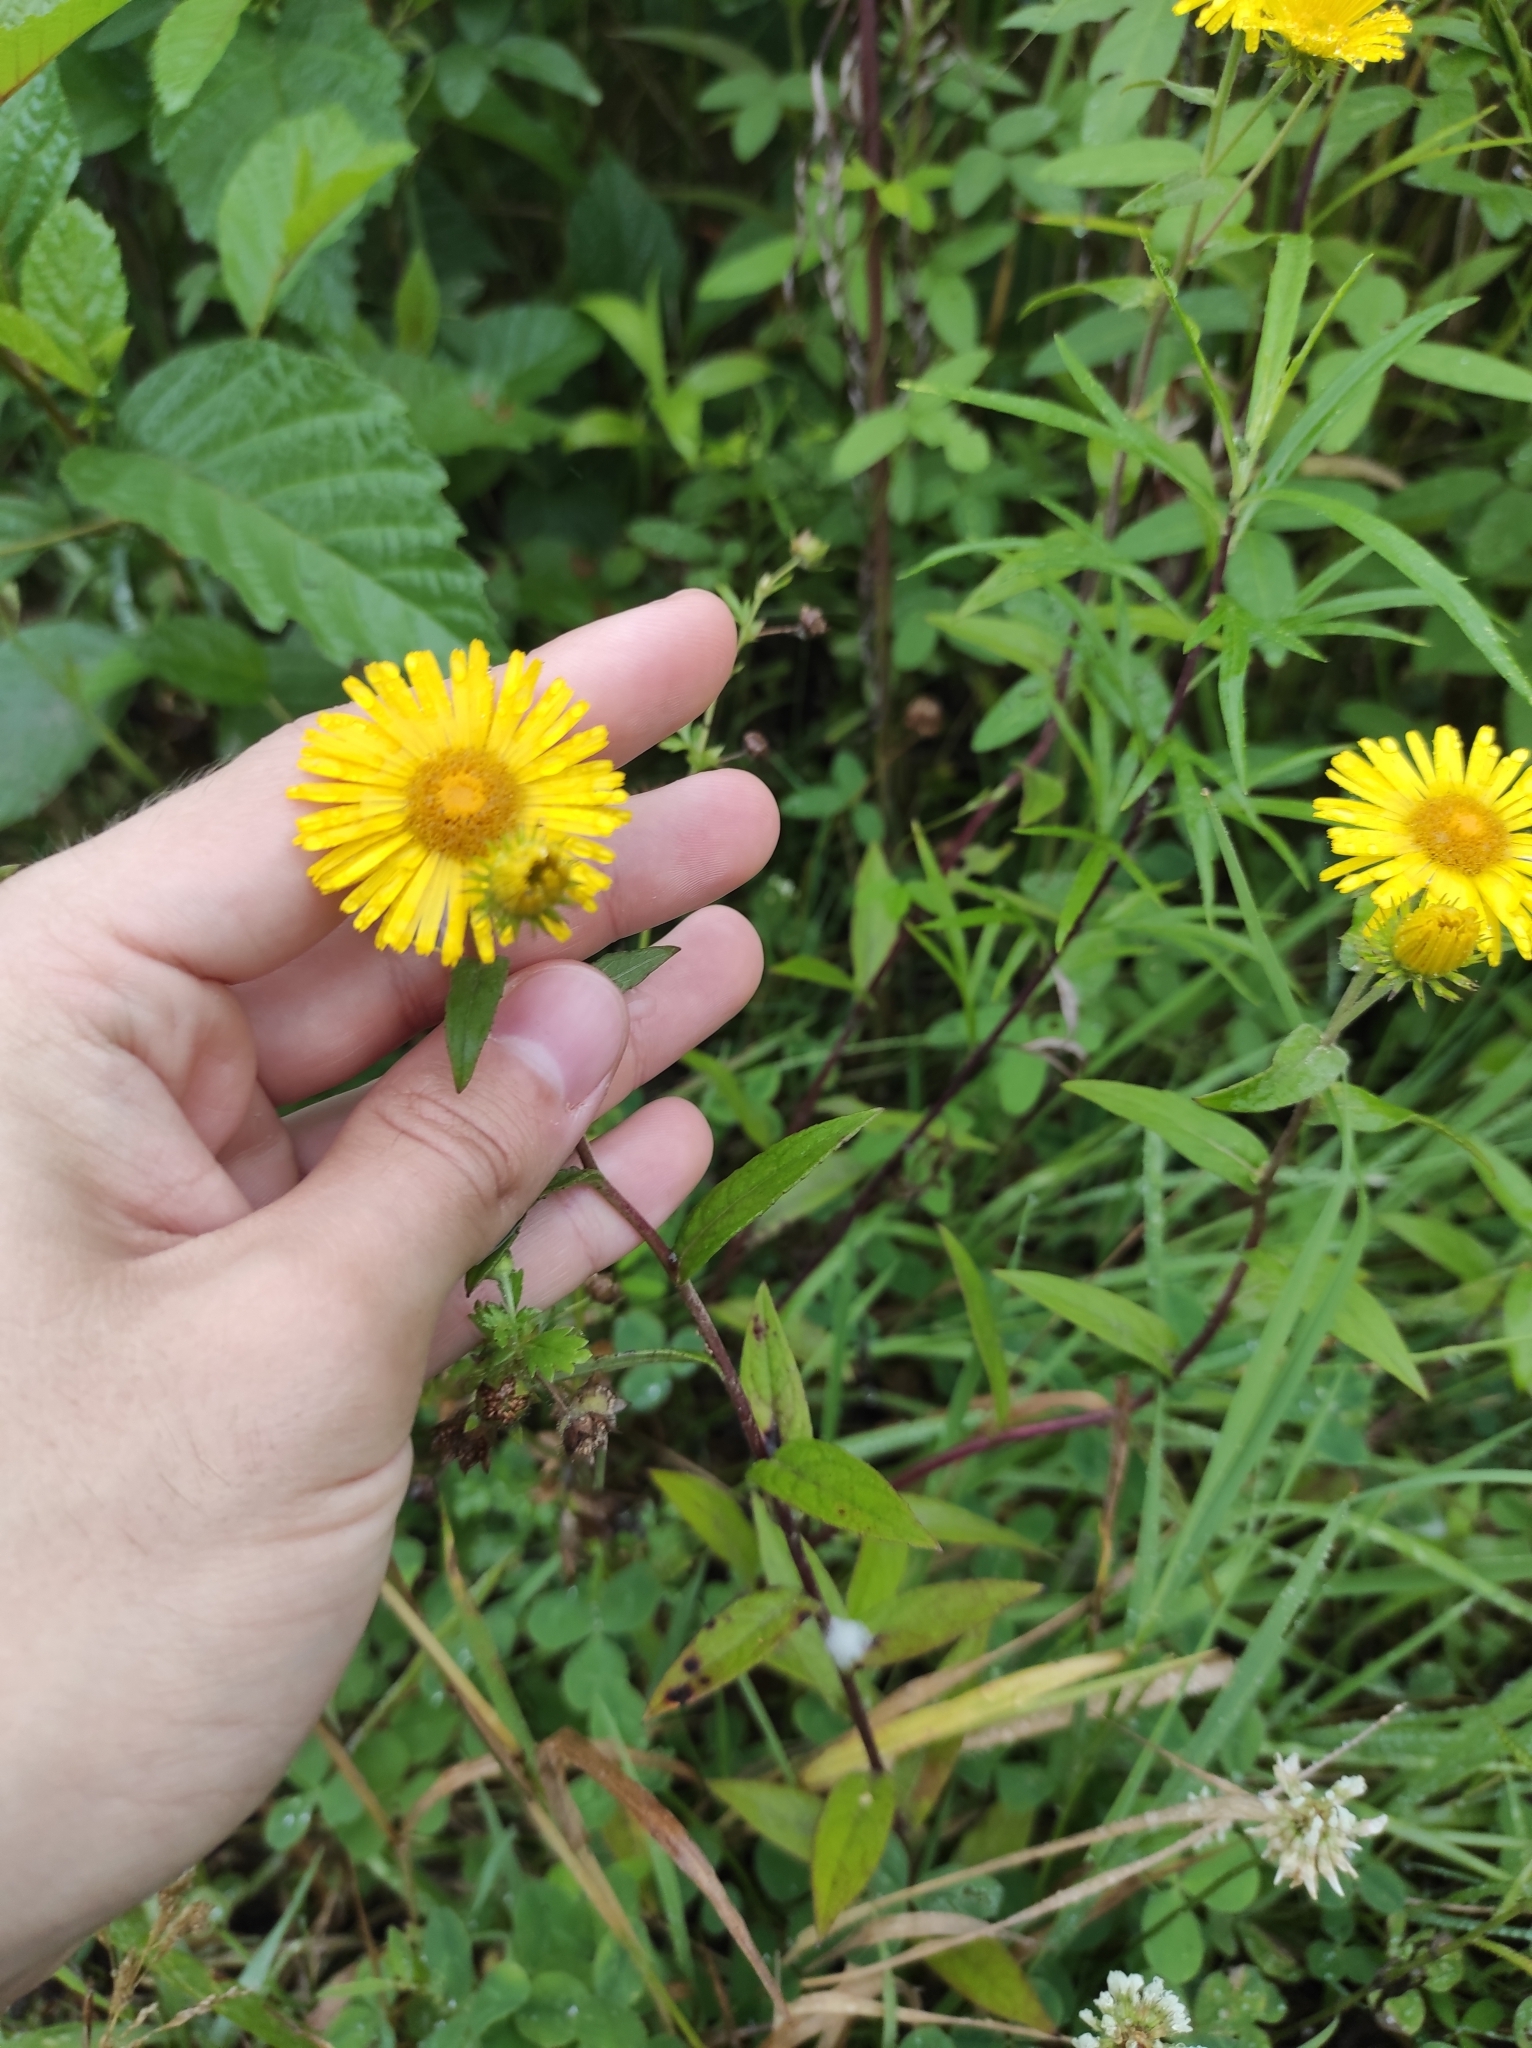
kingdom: Plantae
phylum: Tracheophyta
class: Magnoliopsida
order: Asterales
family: Asteraceae
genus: Inula
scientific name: Inula japonica
